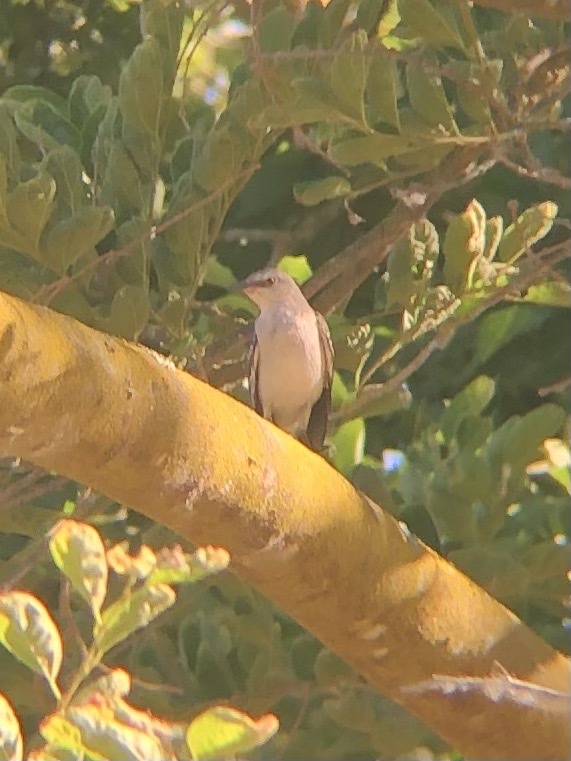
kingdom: Animalia
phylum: Chordata
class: Aves
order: Passeriformes
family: Mimidae
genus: Mimus
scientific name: Mimus polyglottos
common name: Northern mockingbird
